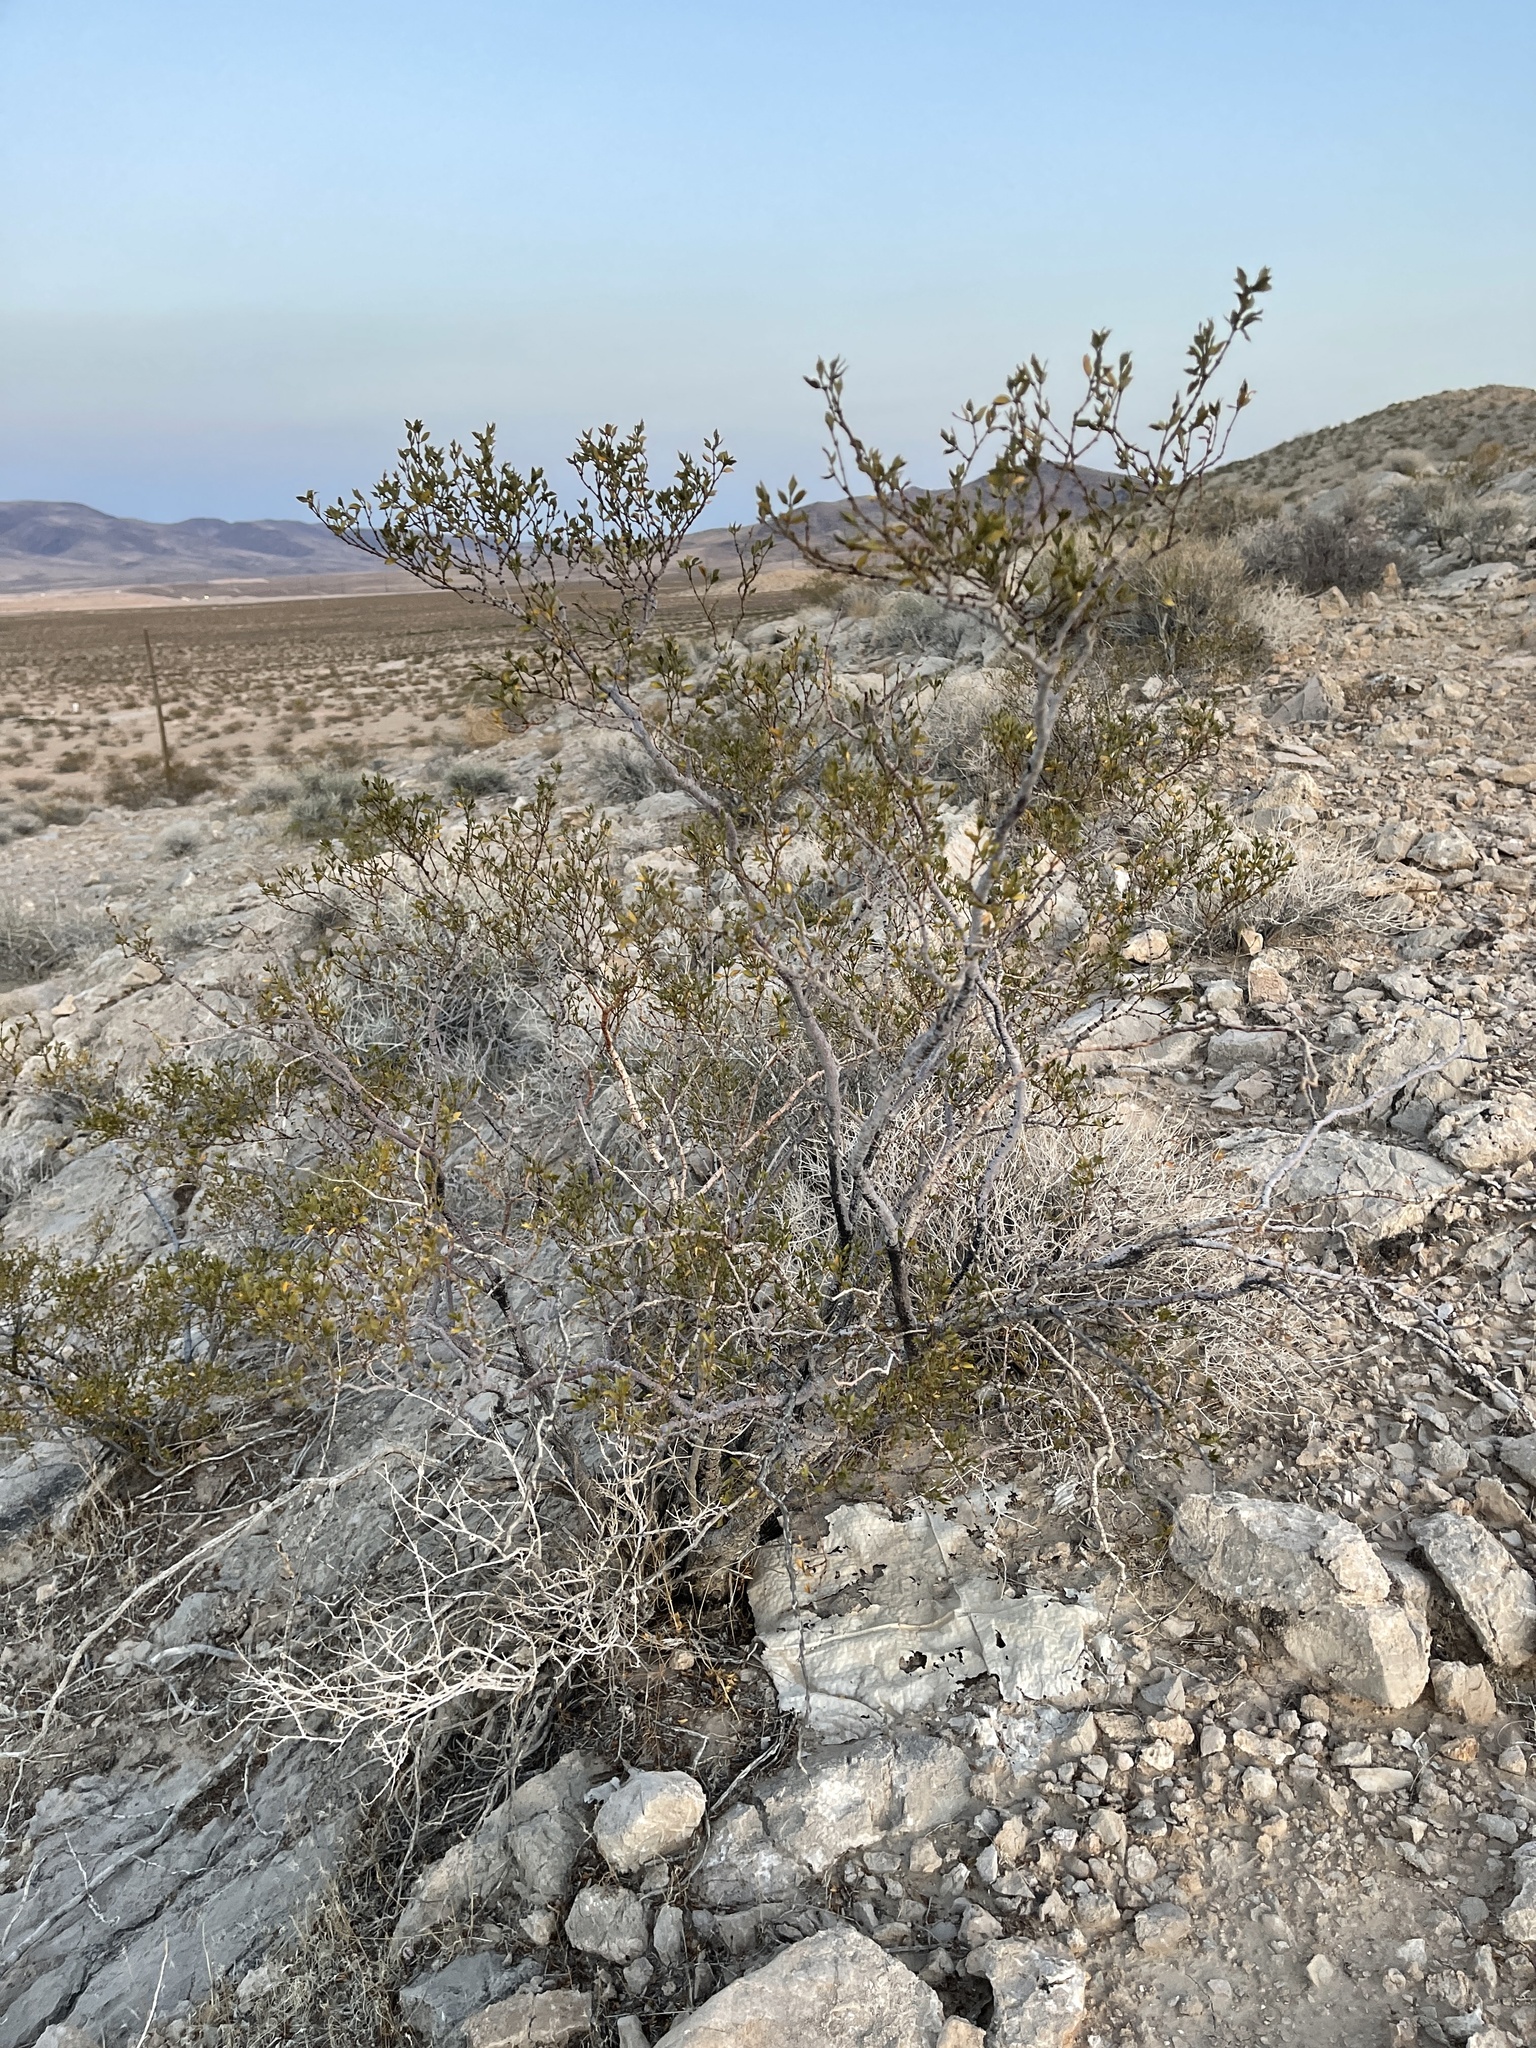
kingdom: Plantae
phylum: Tracheophyta
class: Magnoliopsida
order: Zygophyllales
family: Zygophyllaceae
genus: Larrea
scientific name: Larrea tridentata
